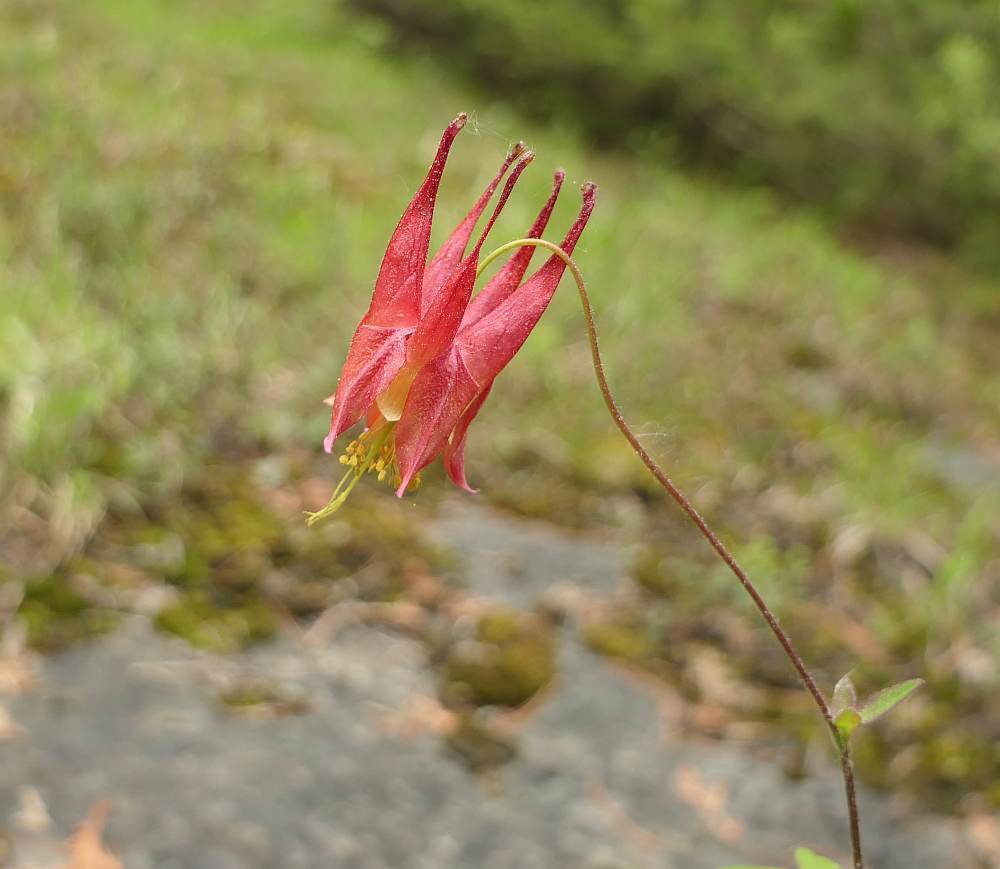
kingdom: Plantae
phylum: Tracheophyta
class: Magnoliopsida
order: Ranunculales
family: Ranunculaceae
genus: Aquilegia
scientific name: Aquilegia canadensis
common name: American columbine
